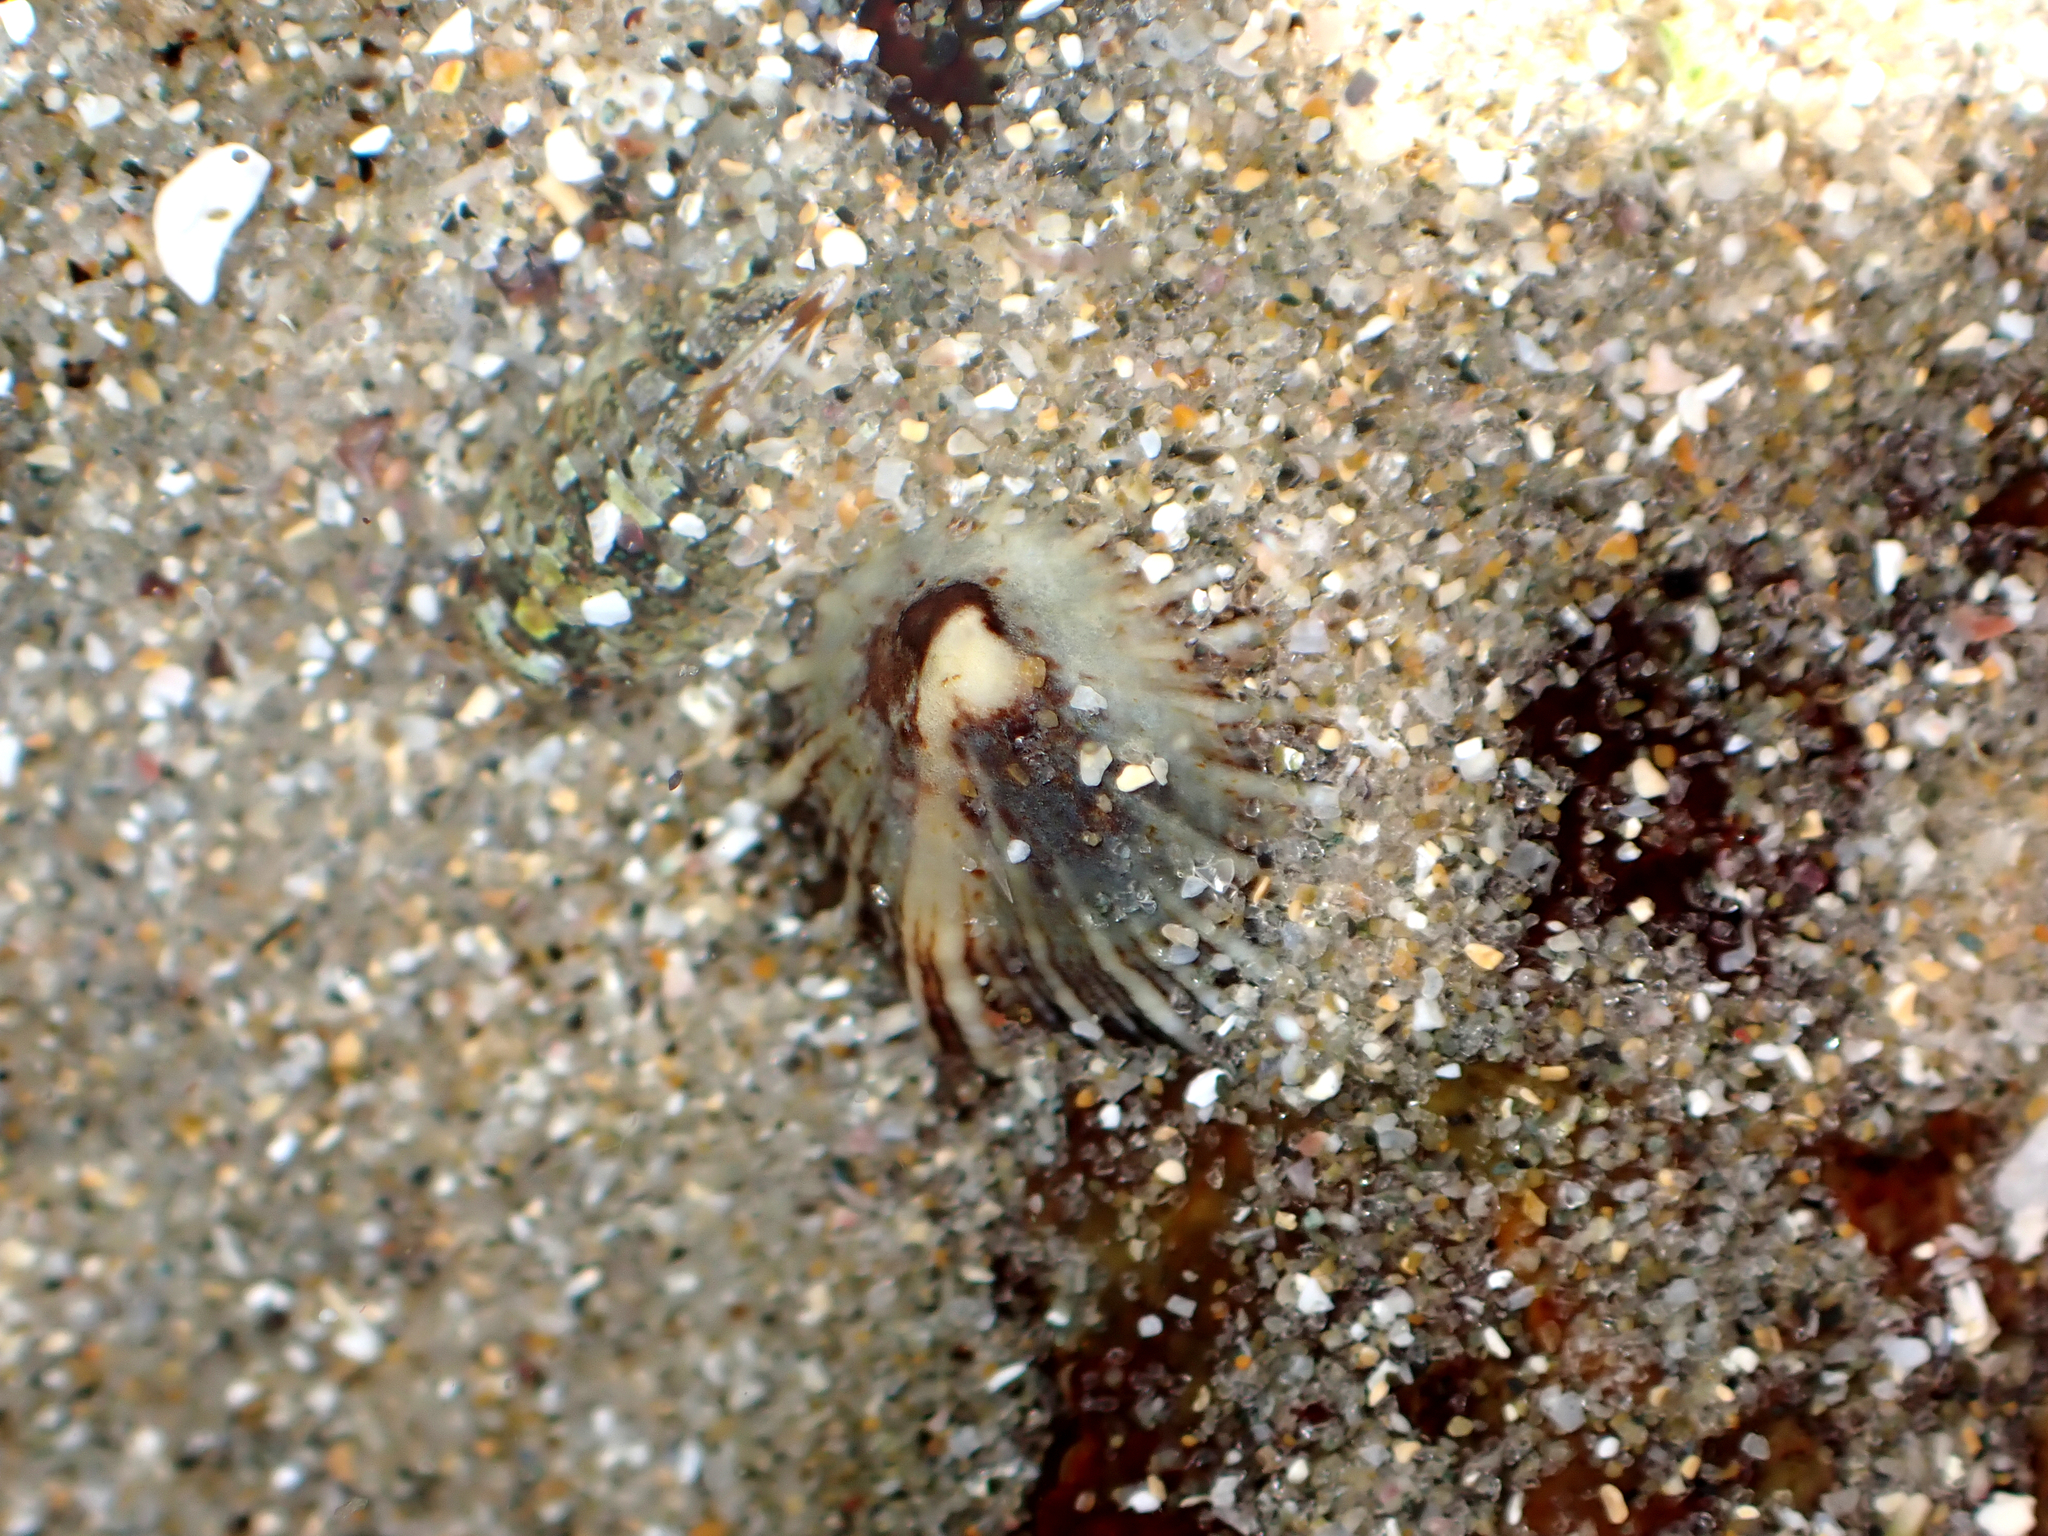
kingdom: Animalia
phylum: Mollusca
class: Gastropoda
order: Siphonariida
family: Siphonariidae
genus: Siphonaria
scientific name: Siphonaria propria
